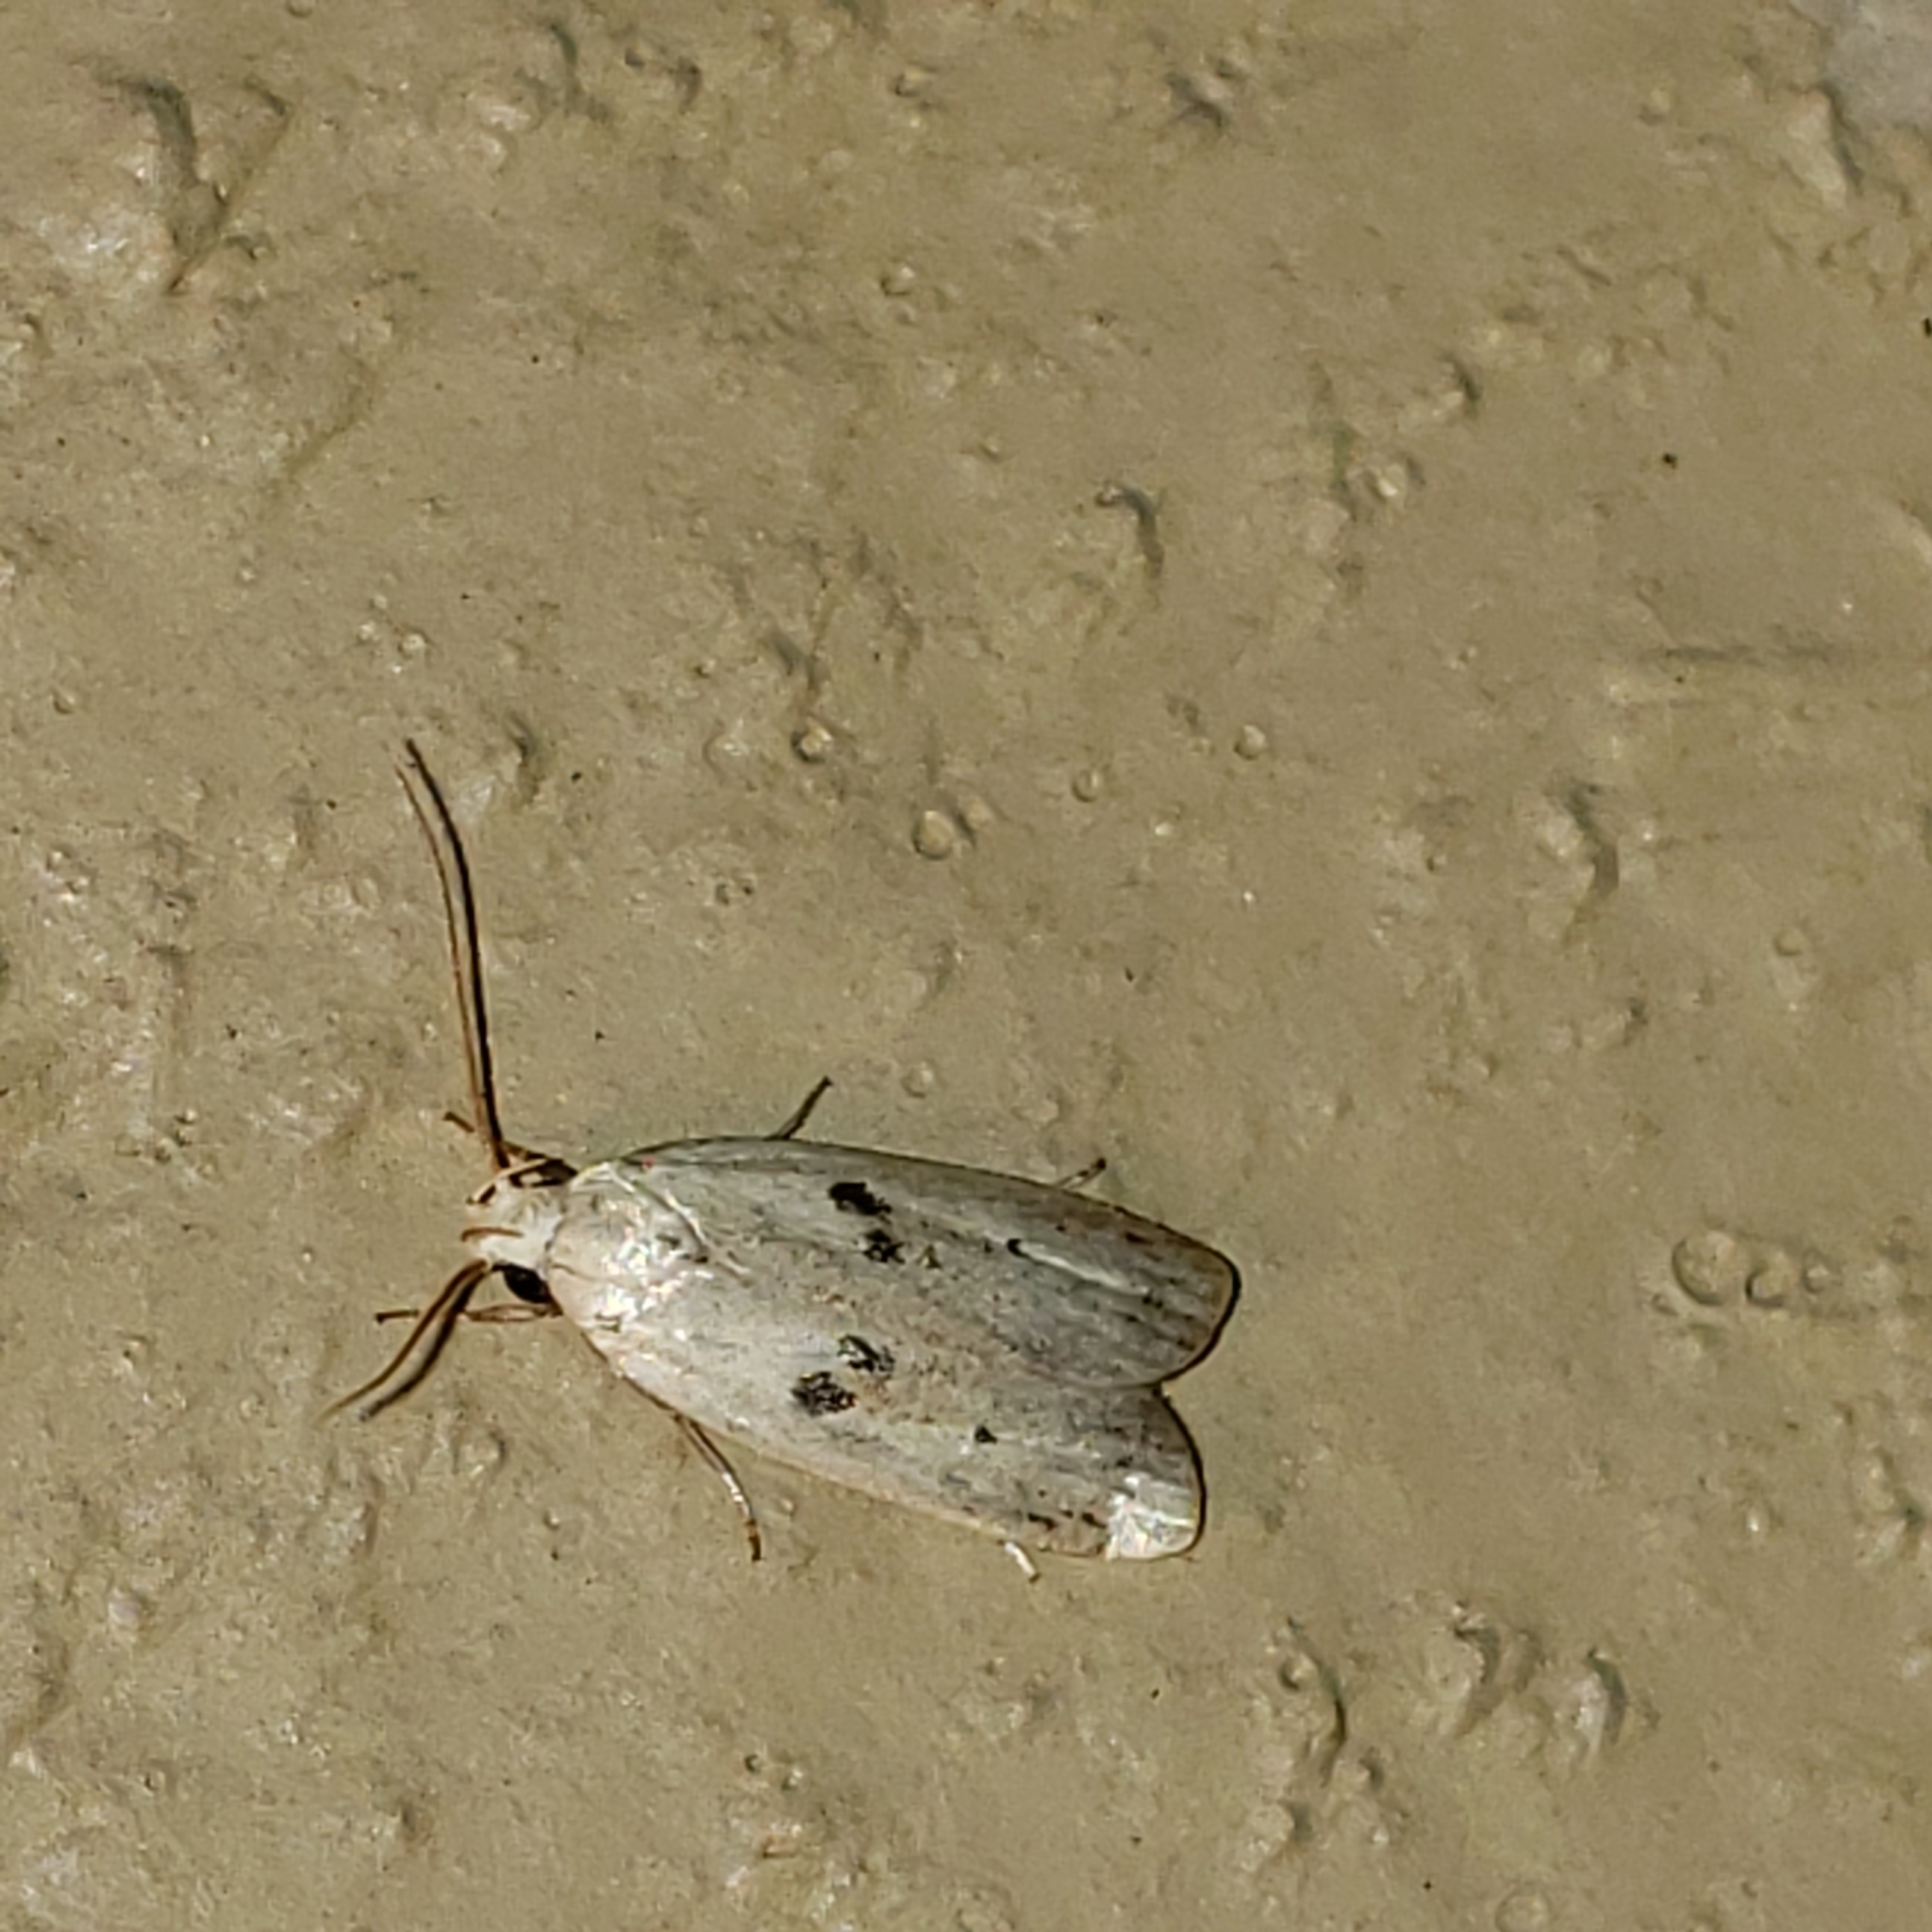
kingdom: Animalia
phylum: Arthropoda
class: Insecta
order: Lepidoptera
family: Peleopodidae
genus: Scythropiodes
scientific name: Scythropiodes issikii
